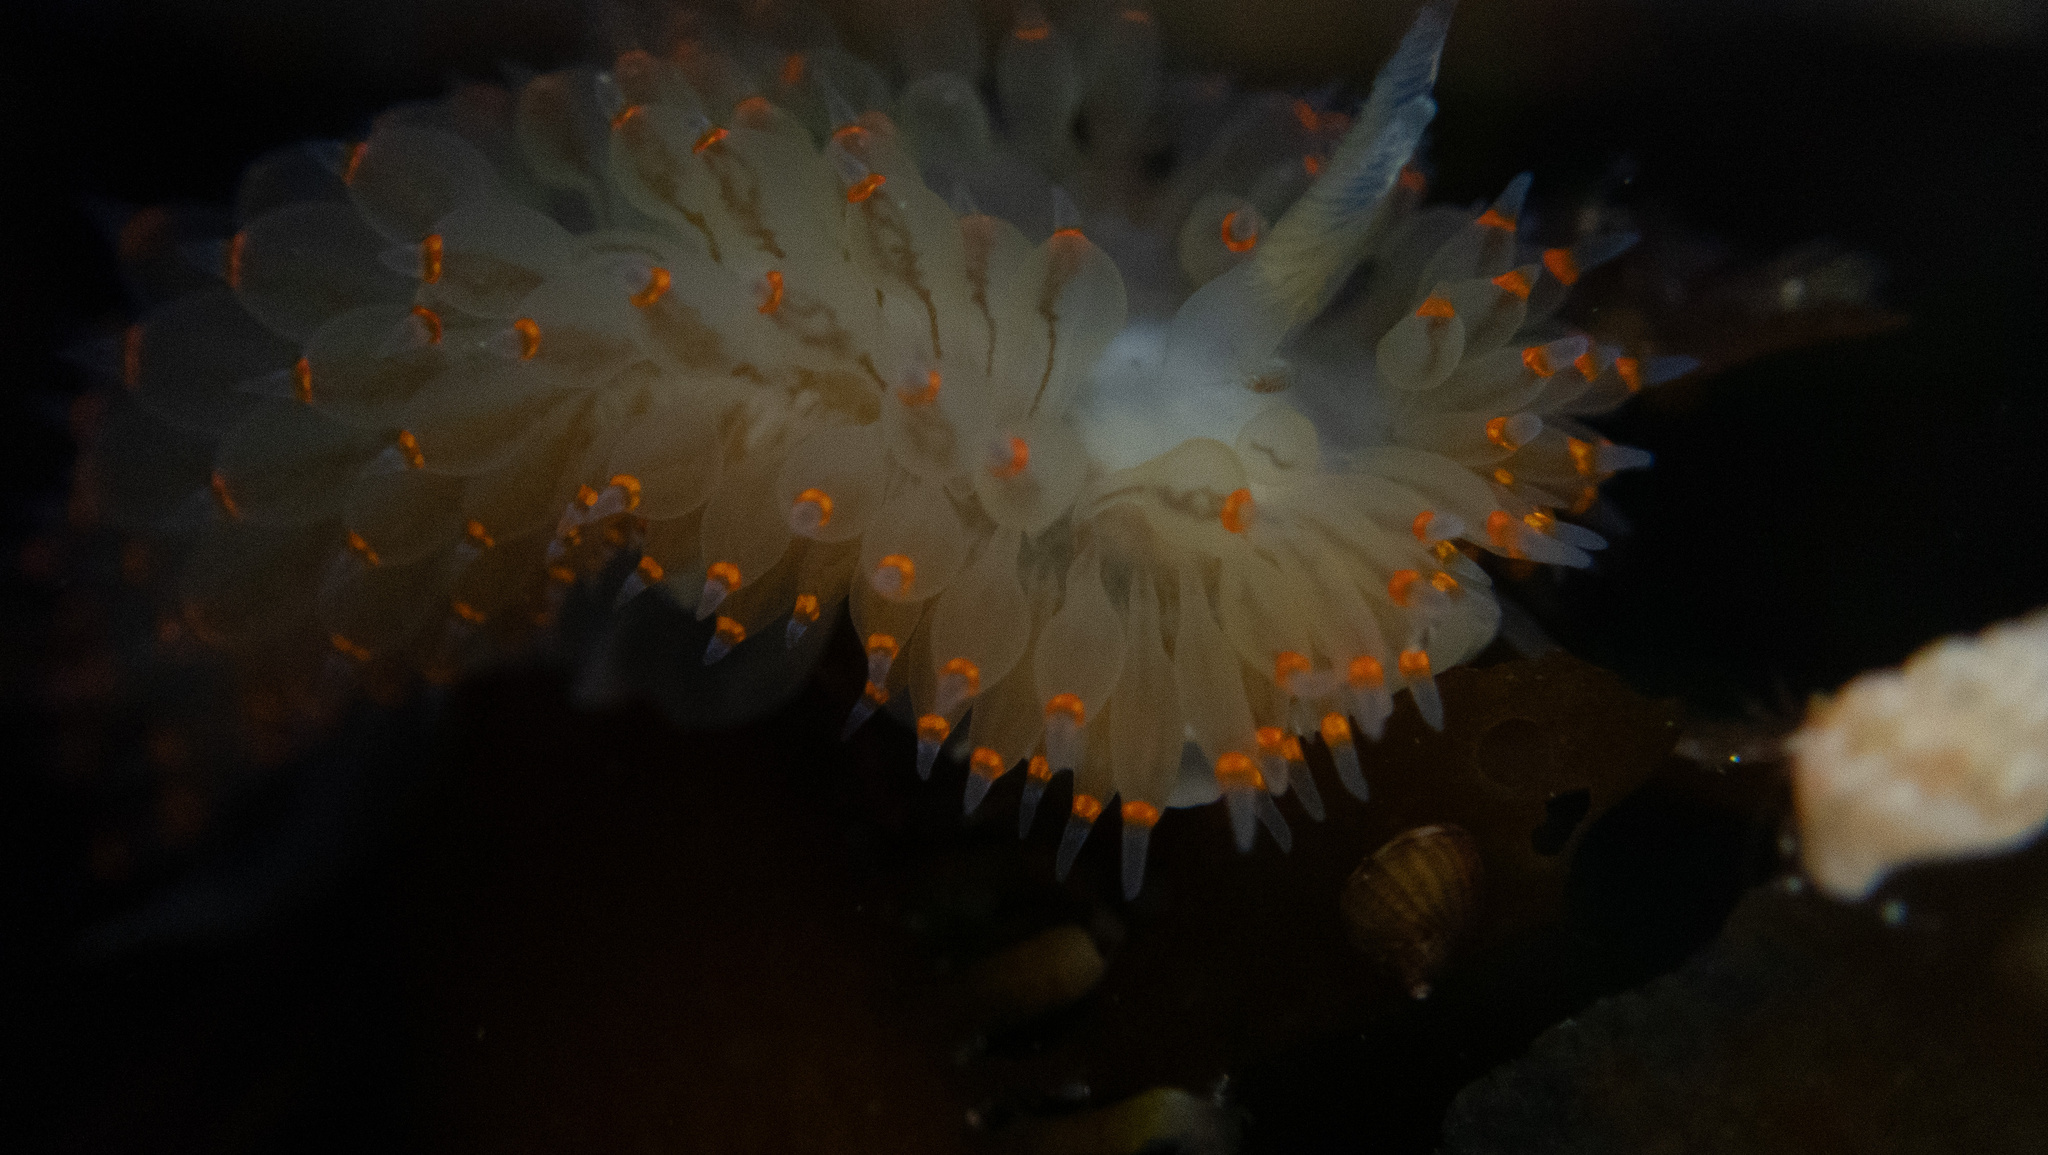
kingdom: Animalia
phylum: Mollusca
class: Gastropoda
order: Nudibranchia
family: Janolidae
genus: Antiopella
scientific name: Antiopella barbarensis
